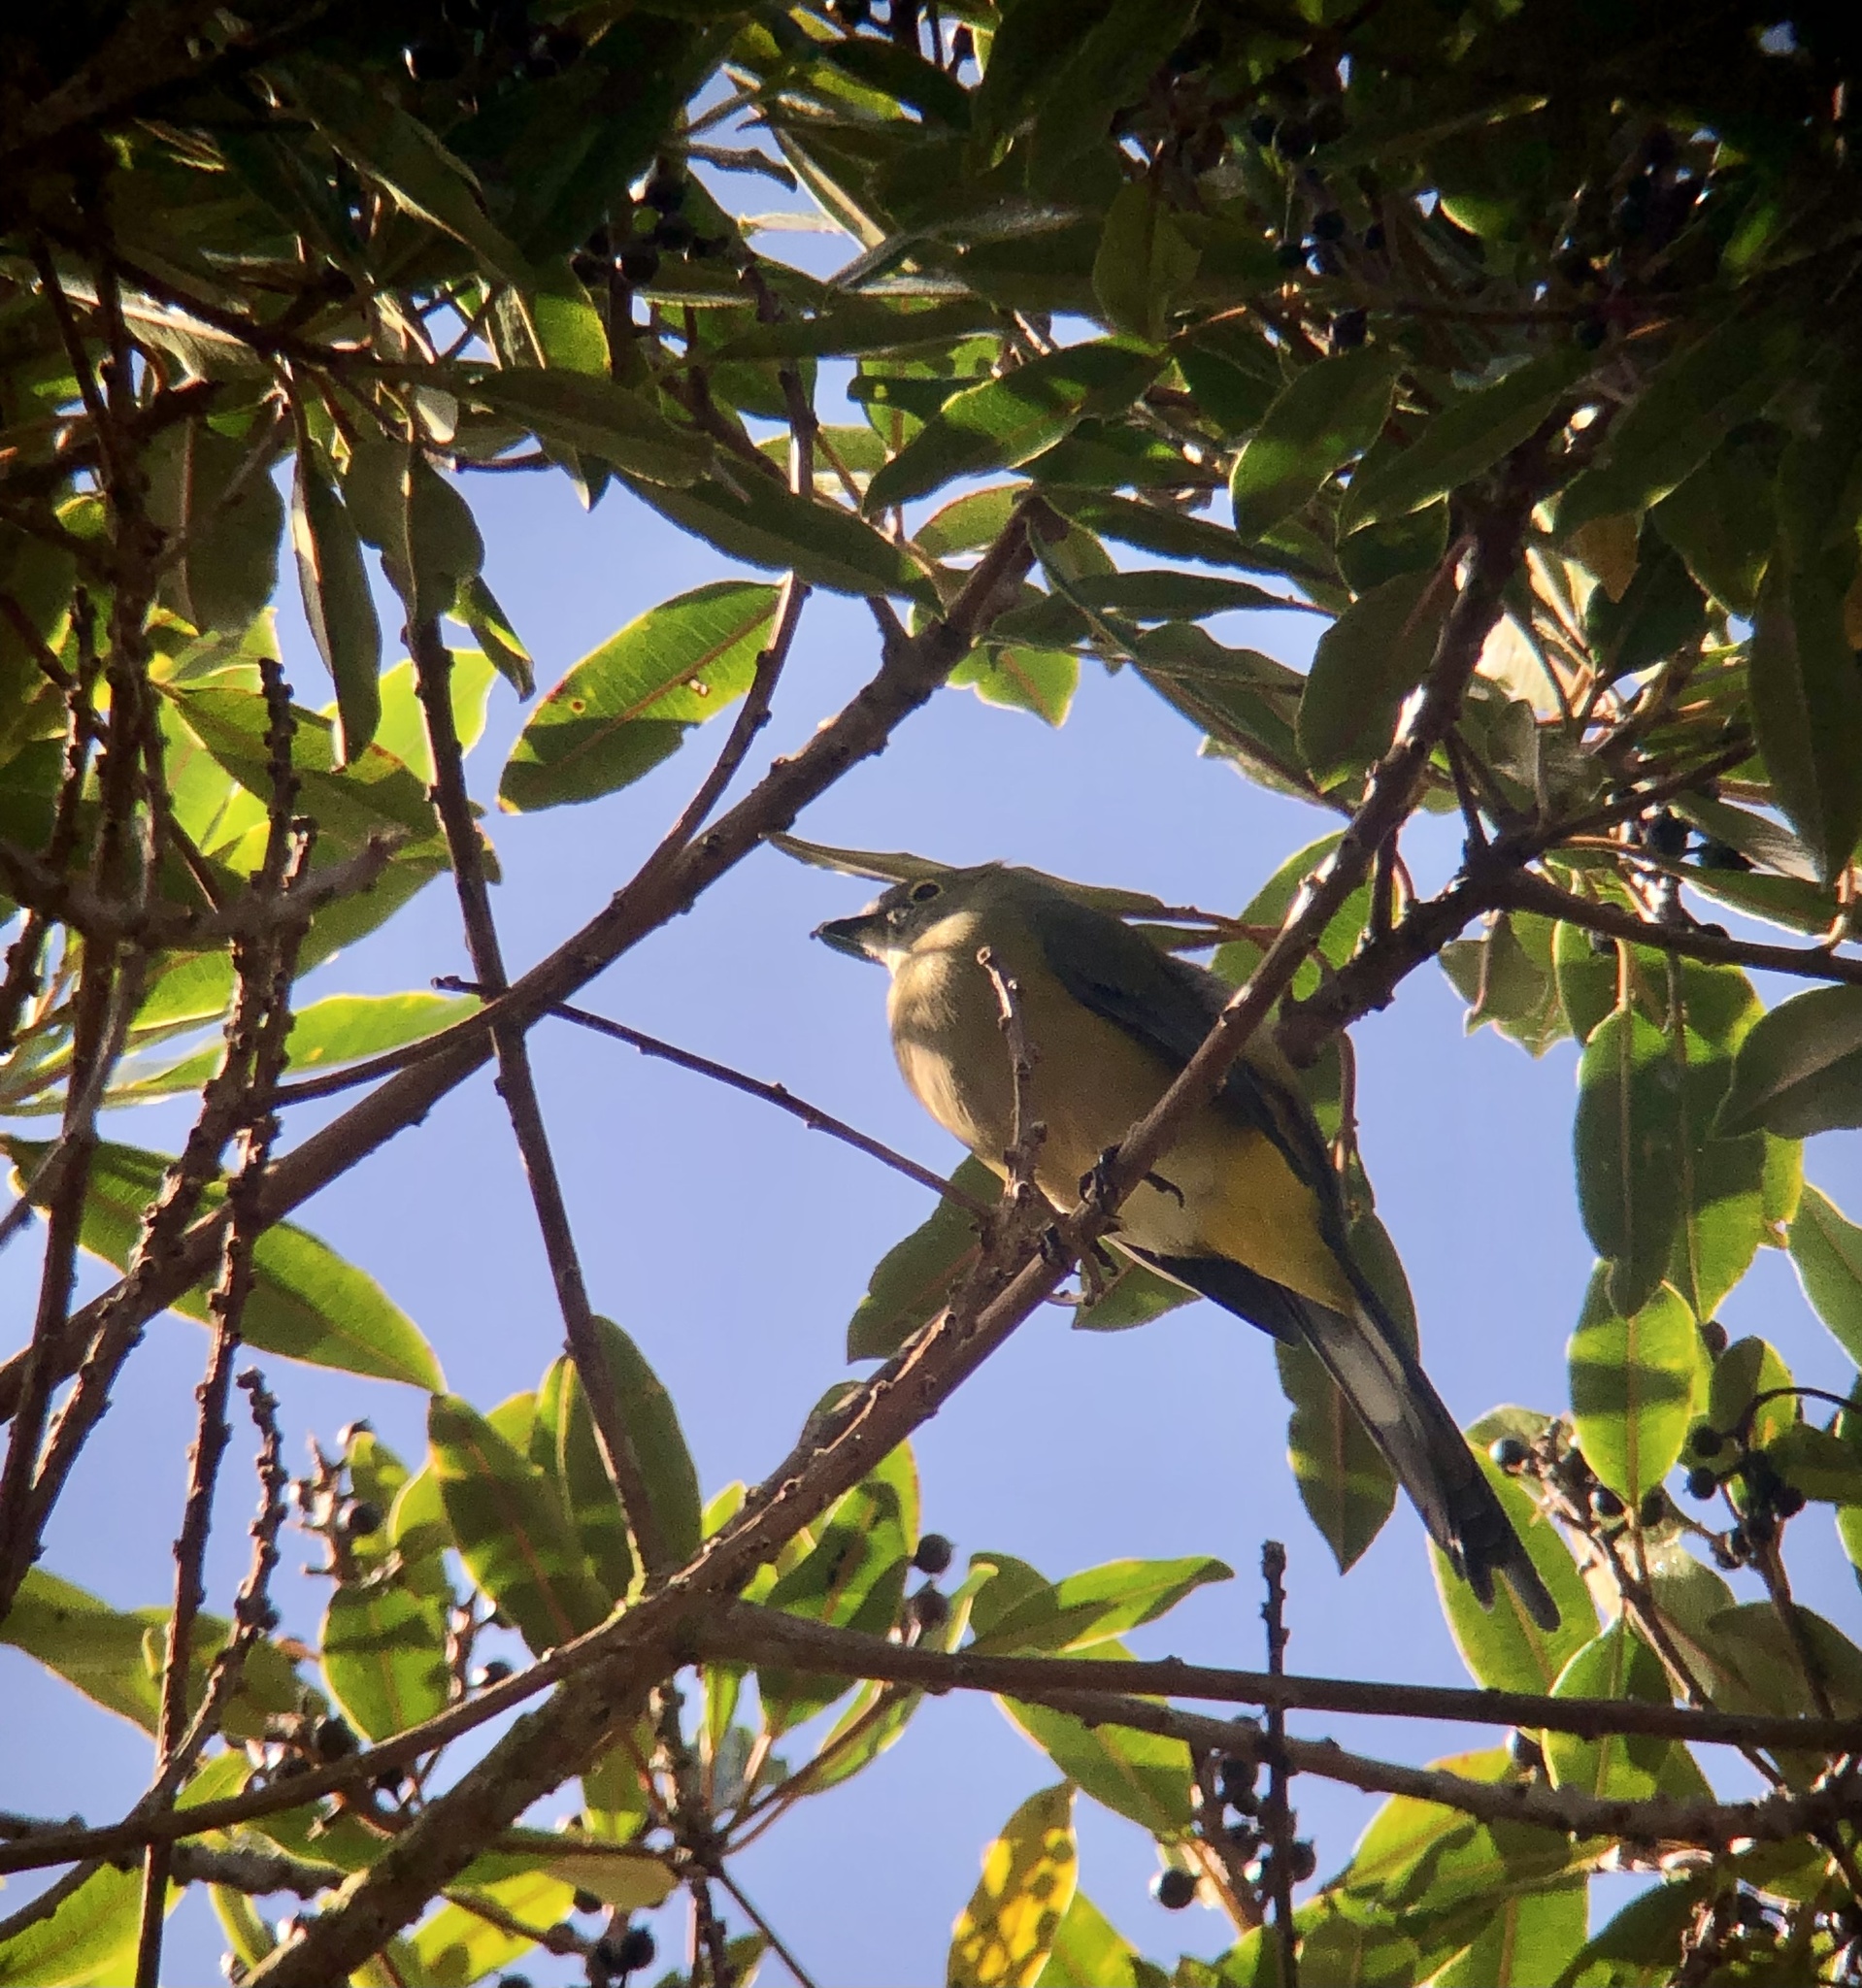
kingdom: Animalia
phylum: Chordata
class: Aves
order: Passeriformes
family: Ptilogonatidae
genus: Ptilogonys
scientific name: Ptilogonys caudatus
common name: Long-tailed silky-flycatcher
